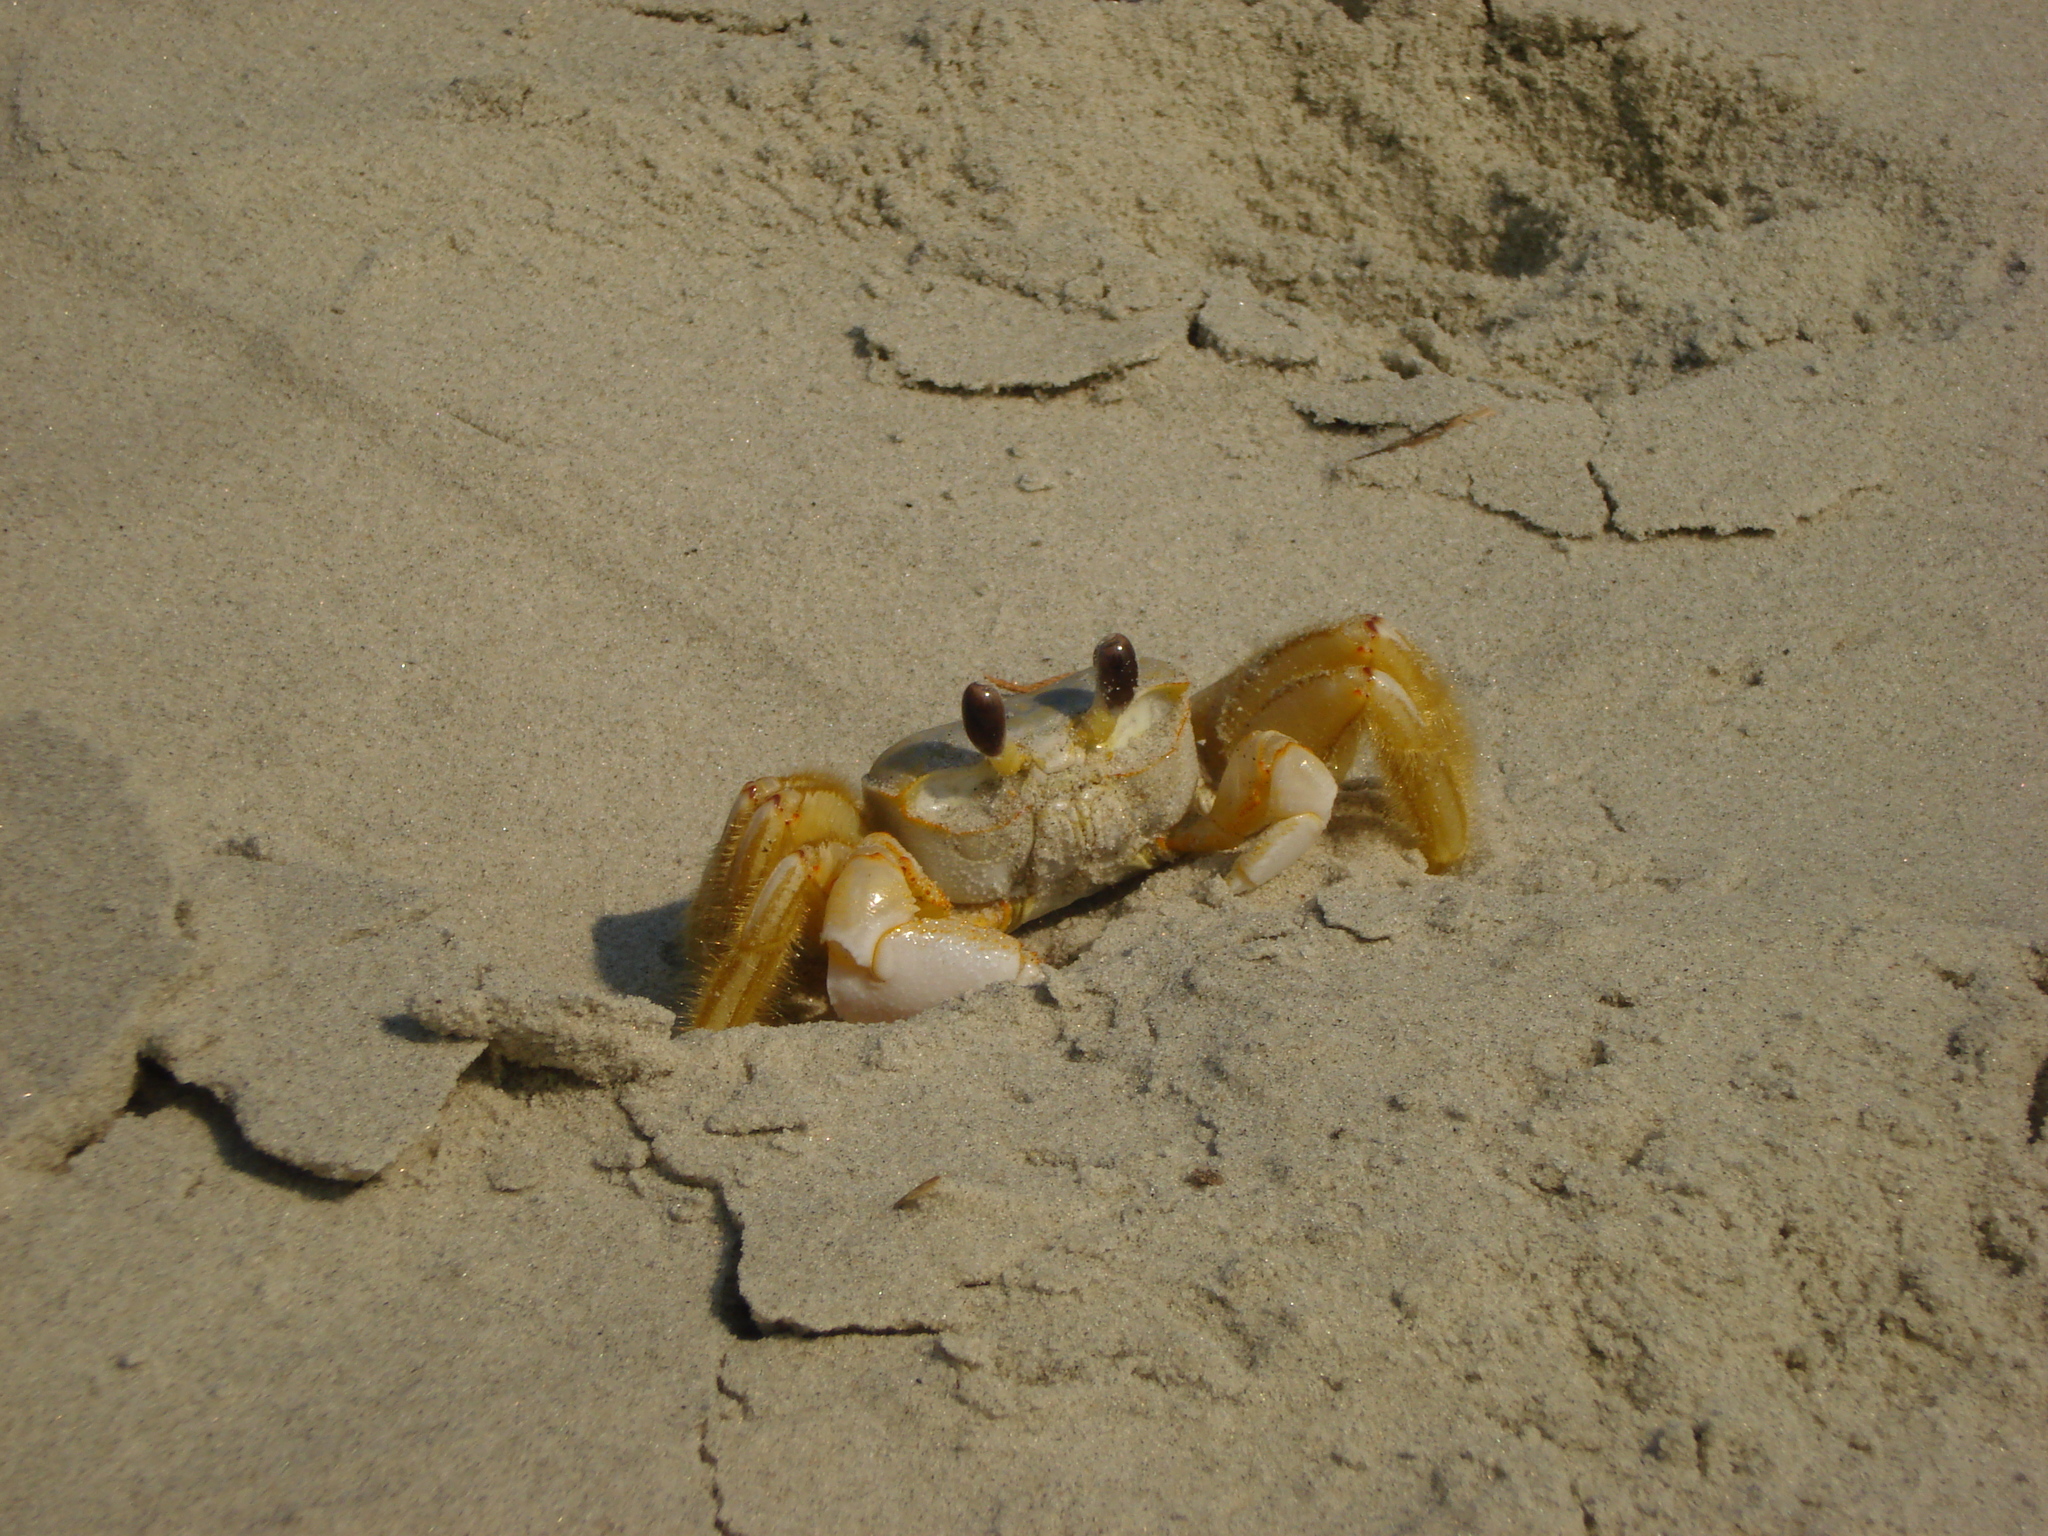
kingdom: Animalia
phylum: Arthropoda
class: Malacostraca
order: Decapoda
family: Ocypodidae
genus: Ocypode
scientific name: Ocypode quadrata
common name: Ghost crab
